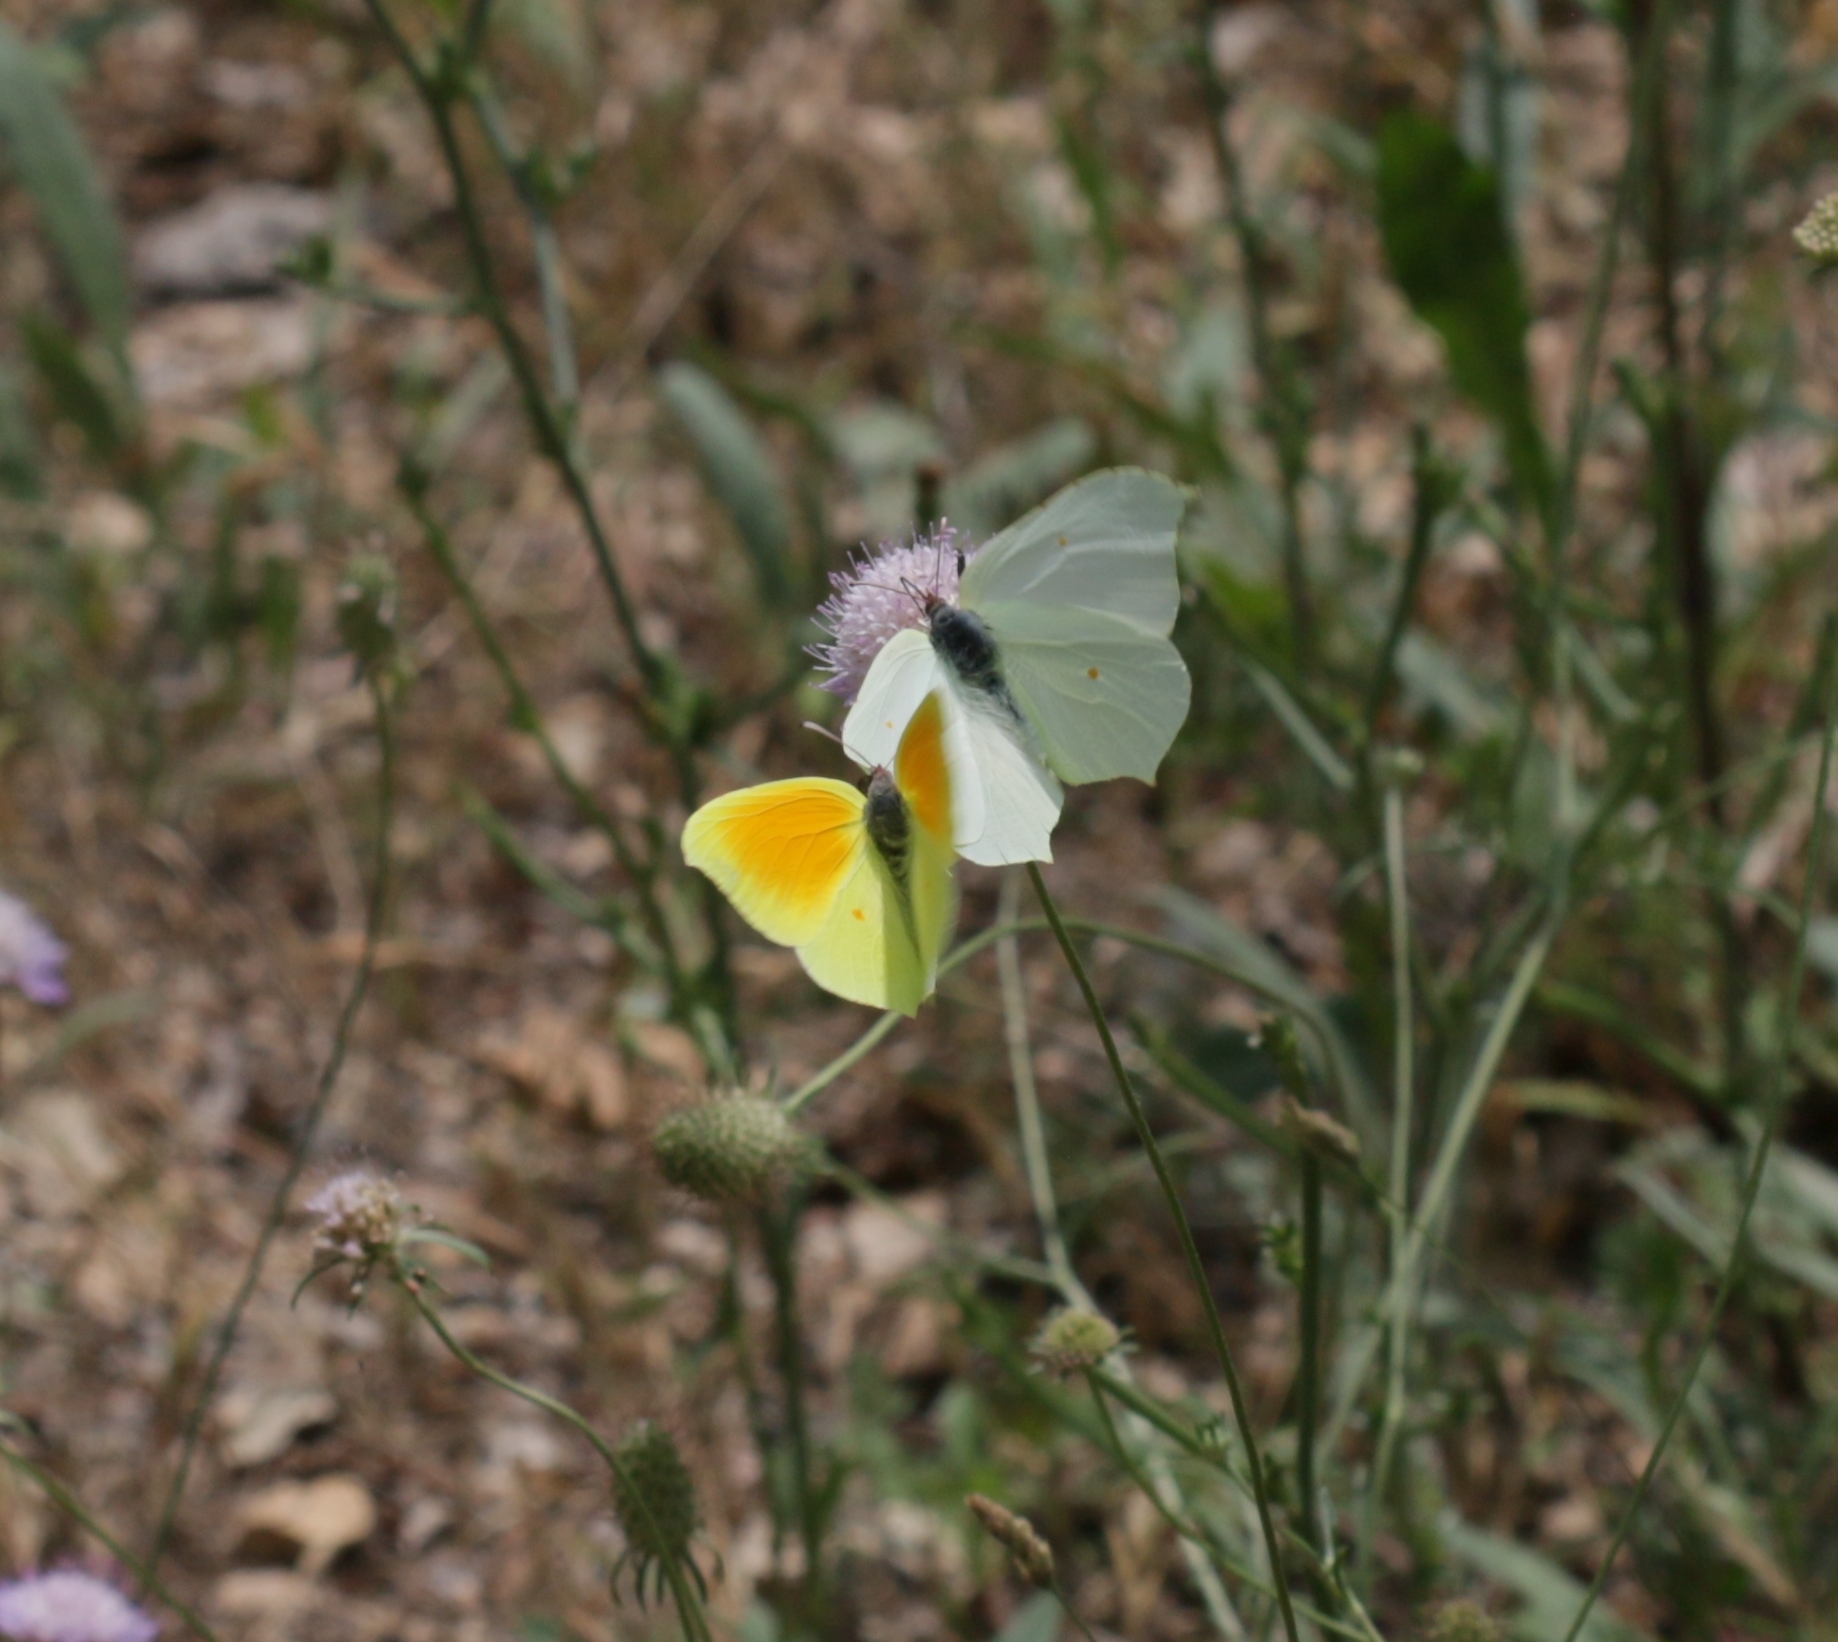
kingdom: Animalia
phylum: Arthropoda
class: Insecta
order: Lepidoptera
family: Pieridae
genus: Gonepteryx
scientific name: Gonepteryx cleopatra
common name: Cleopatra
